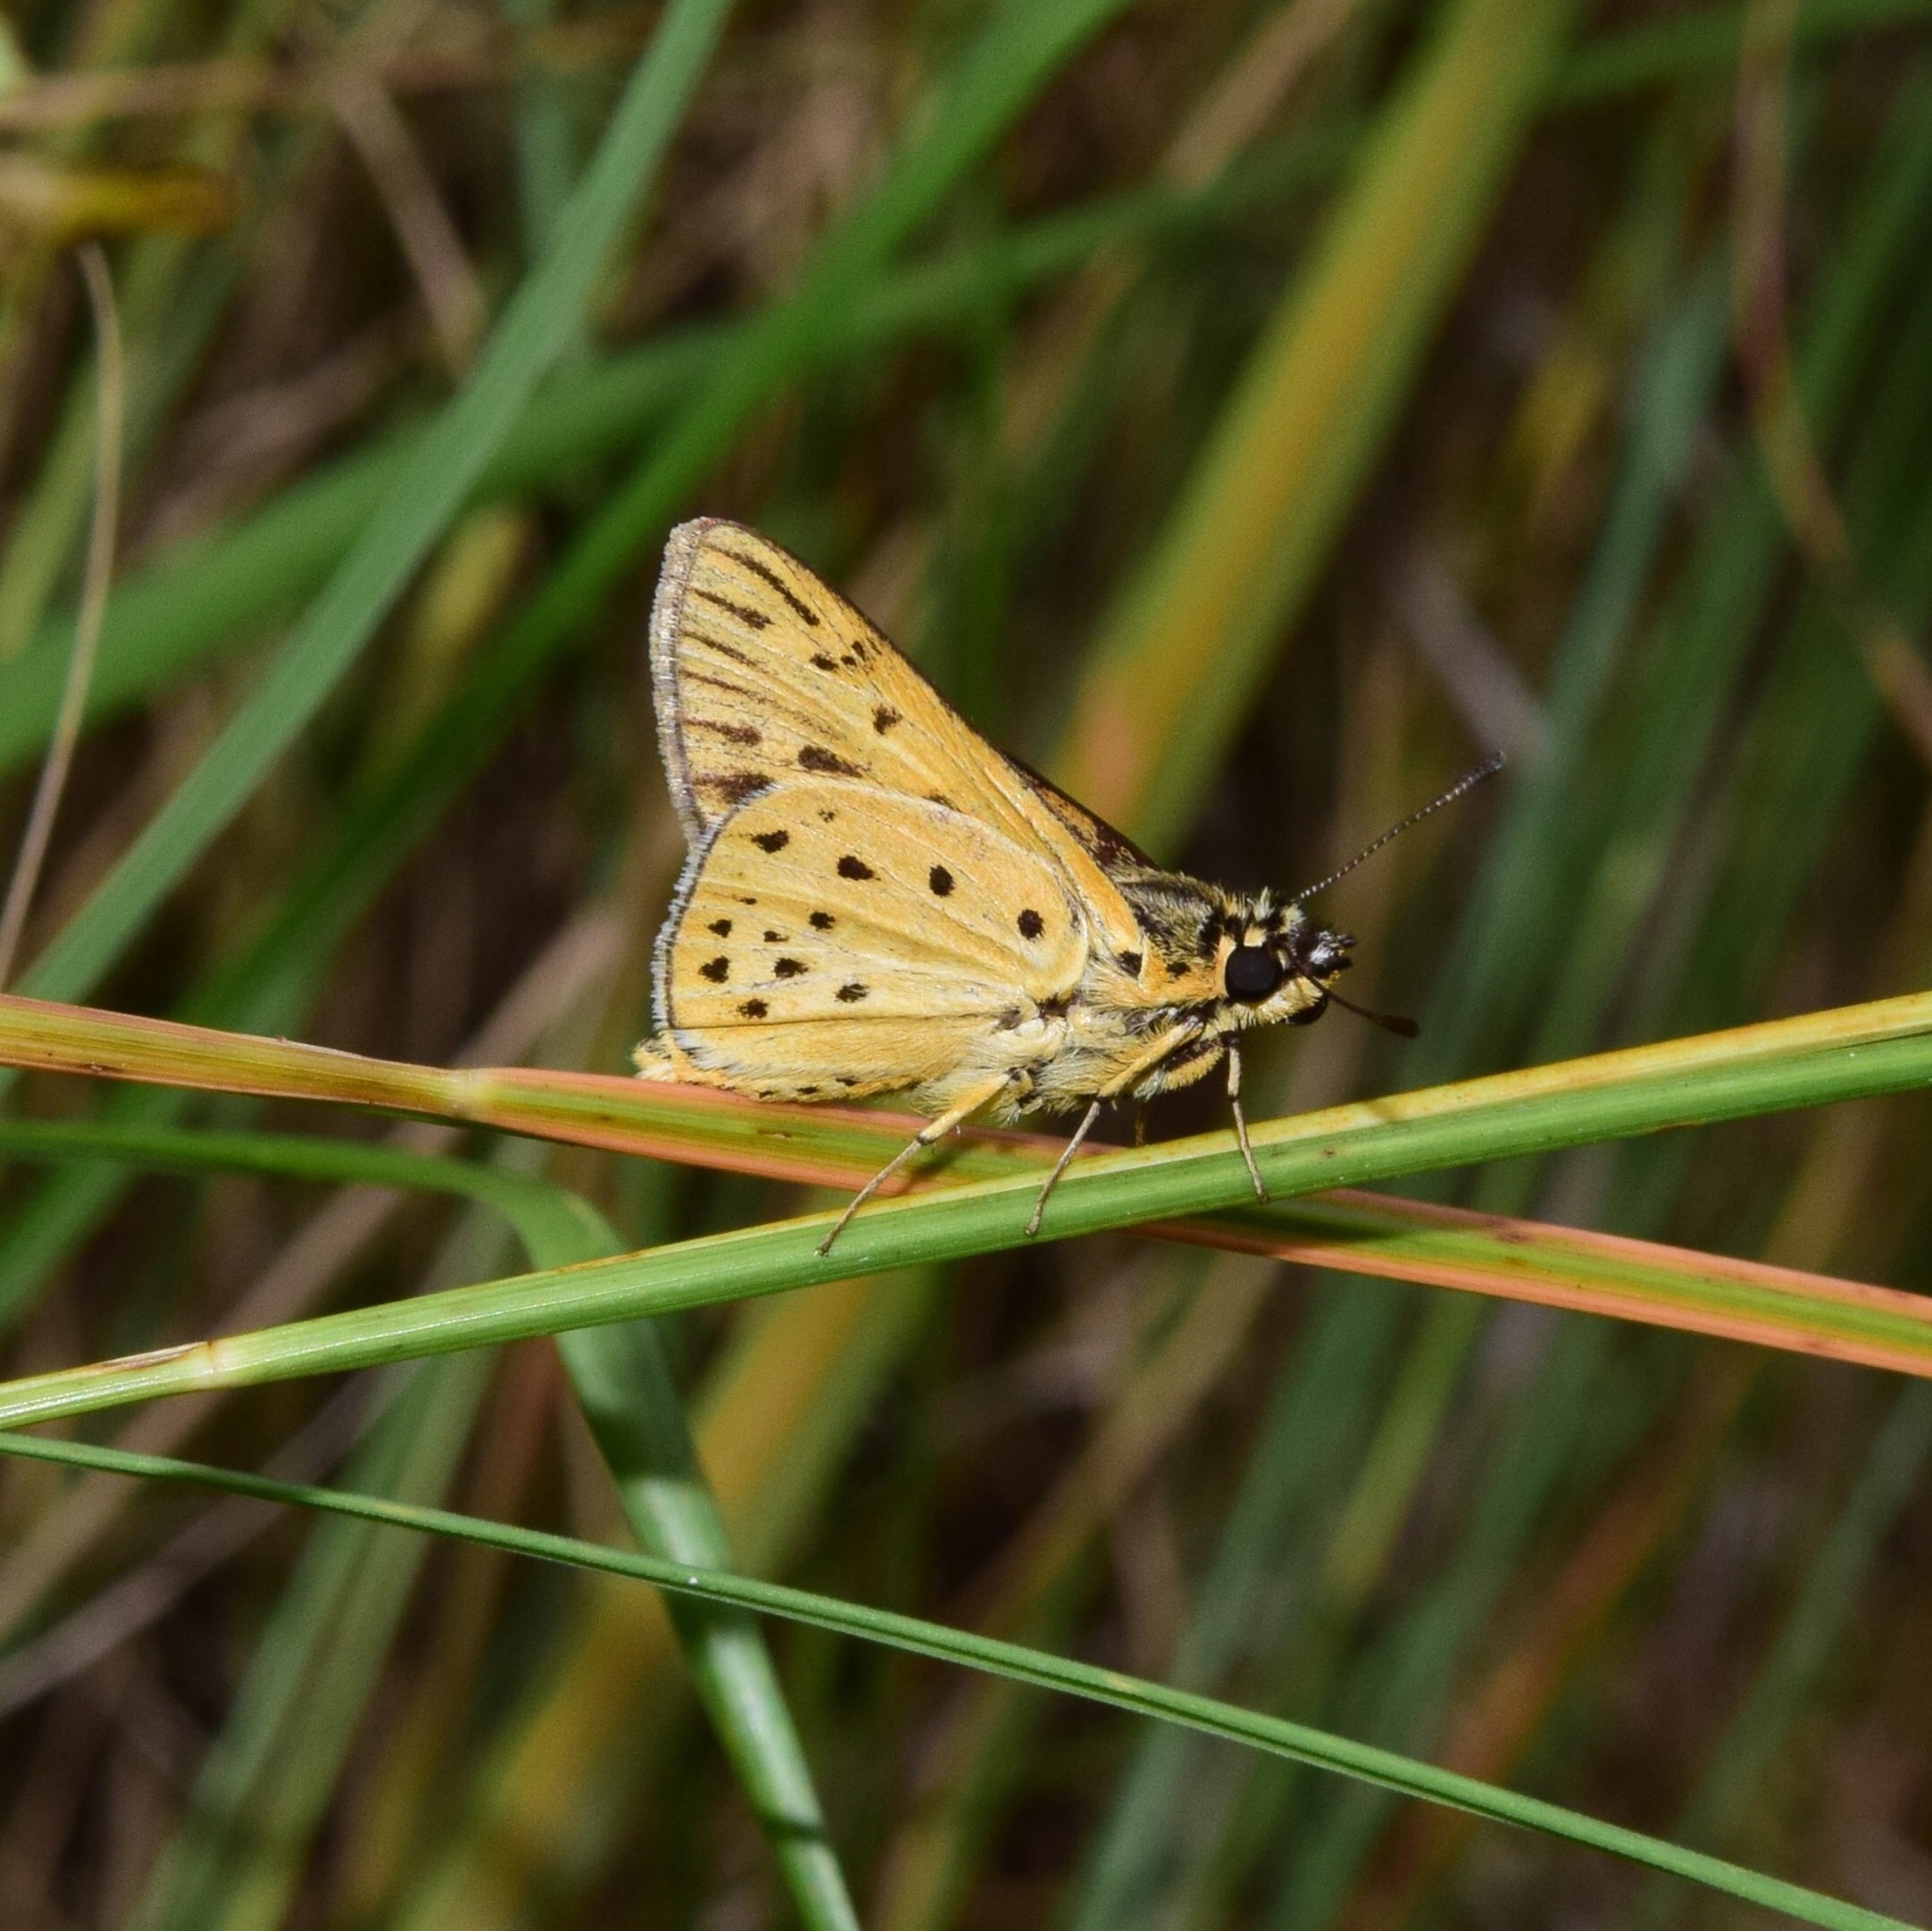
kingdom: Animalia
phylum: Arthropoda
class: Insecta
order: Lepidoptera
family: Hesperiidae
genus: Kedestes
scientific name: Kedestes lepenula
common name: Chequered ranger
